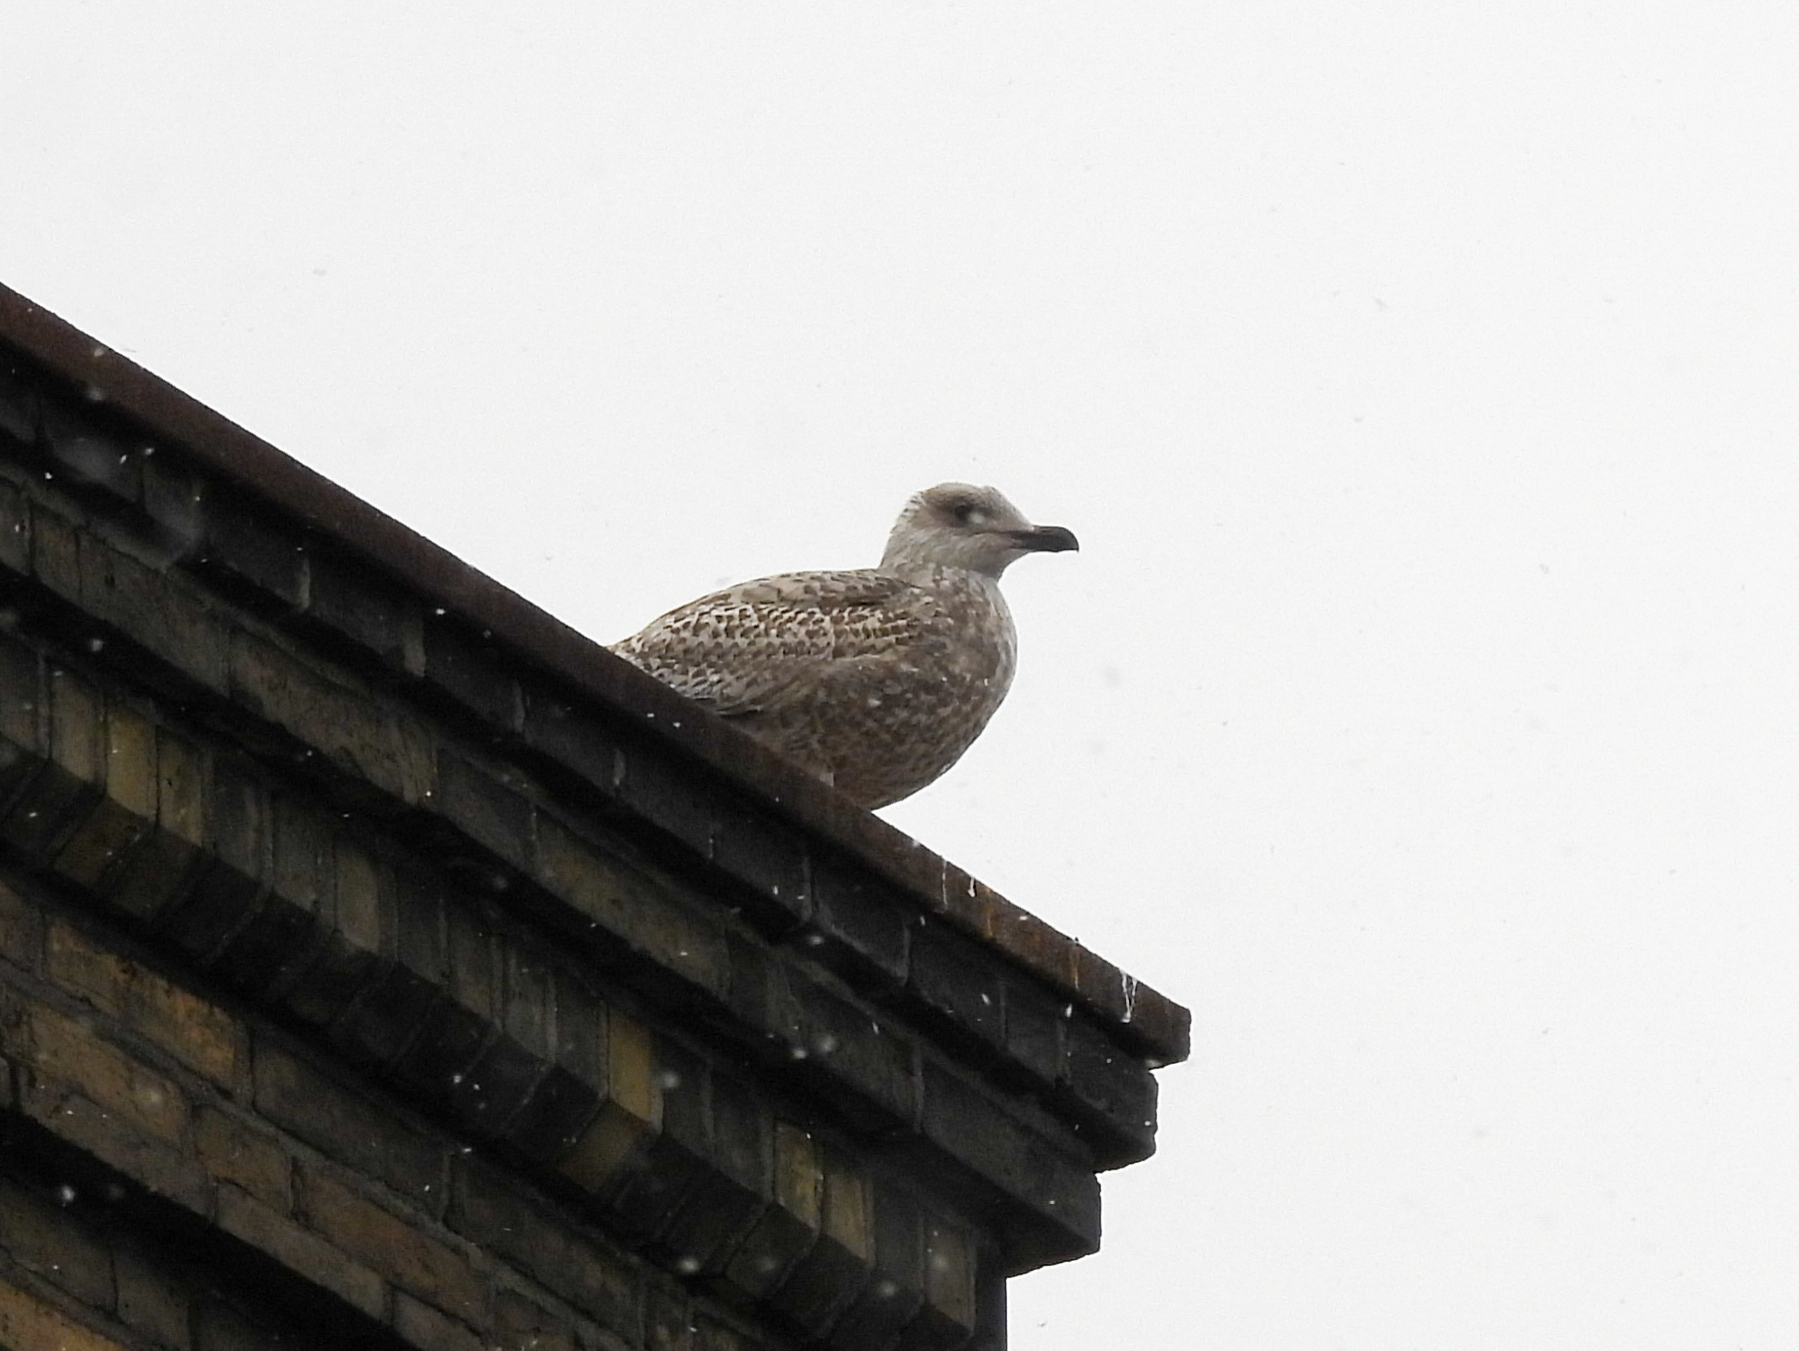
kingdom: Animalia
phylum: Chordata
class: Aves
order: Charadriiformes
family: Laridae
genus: Larus
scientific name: Larus argentatus
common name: Herring gull
